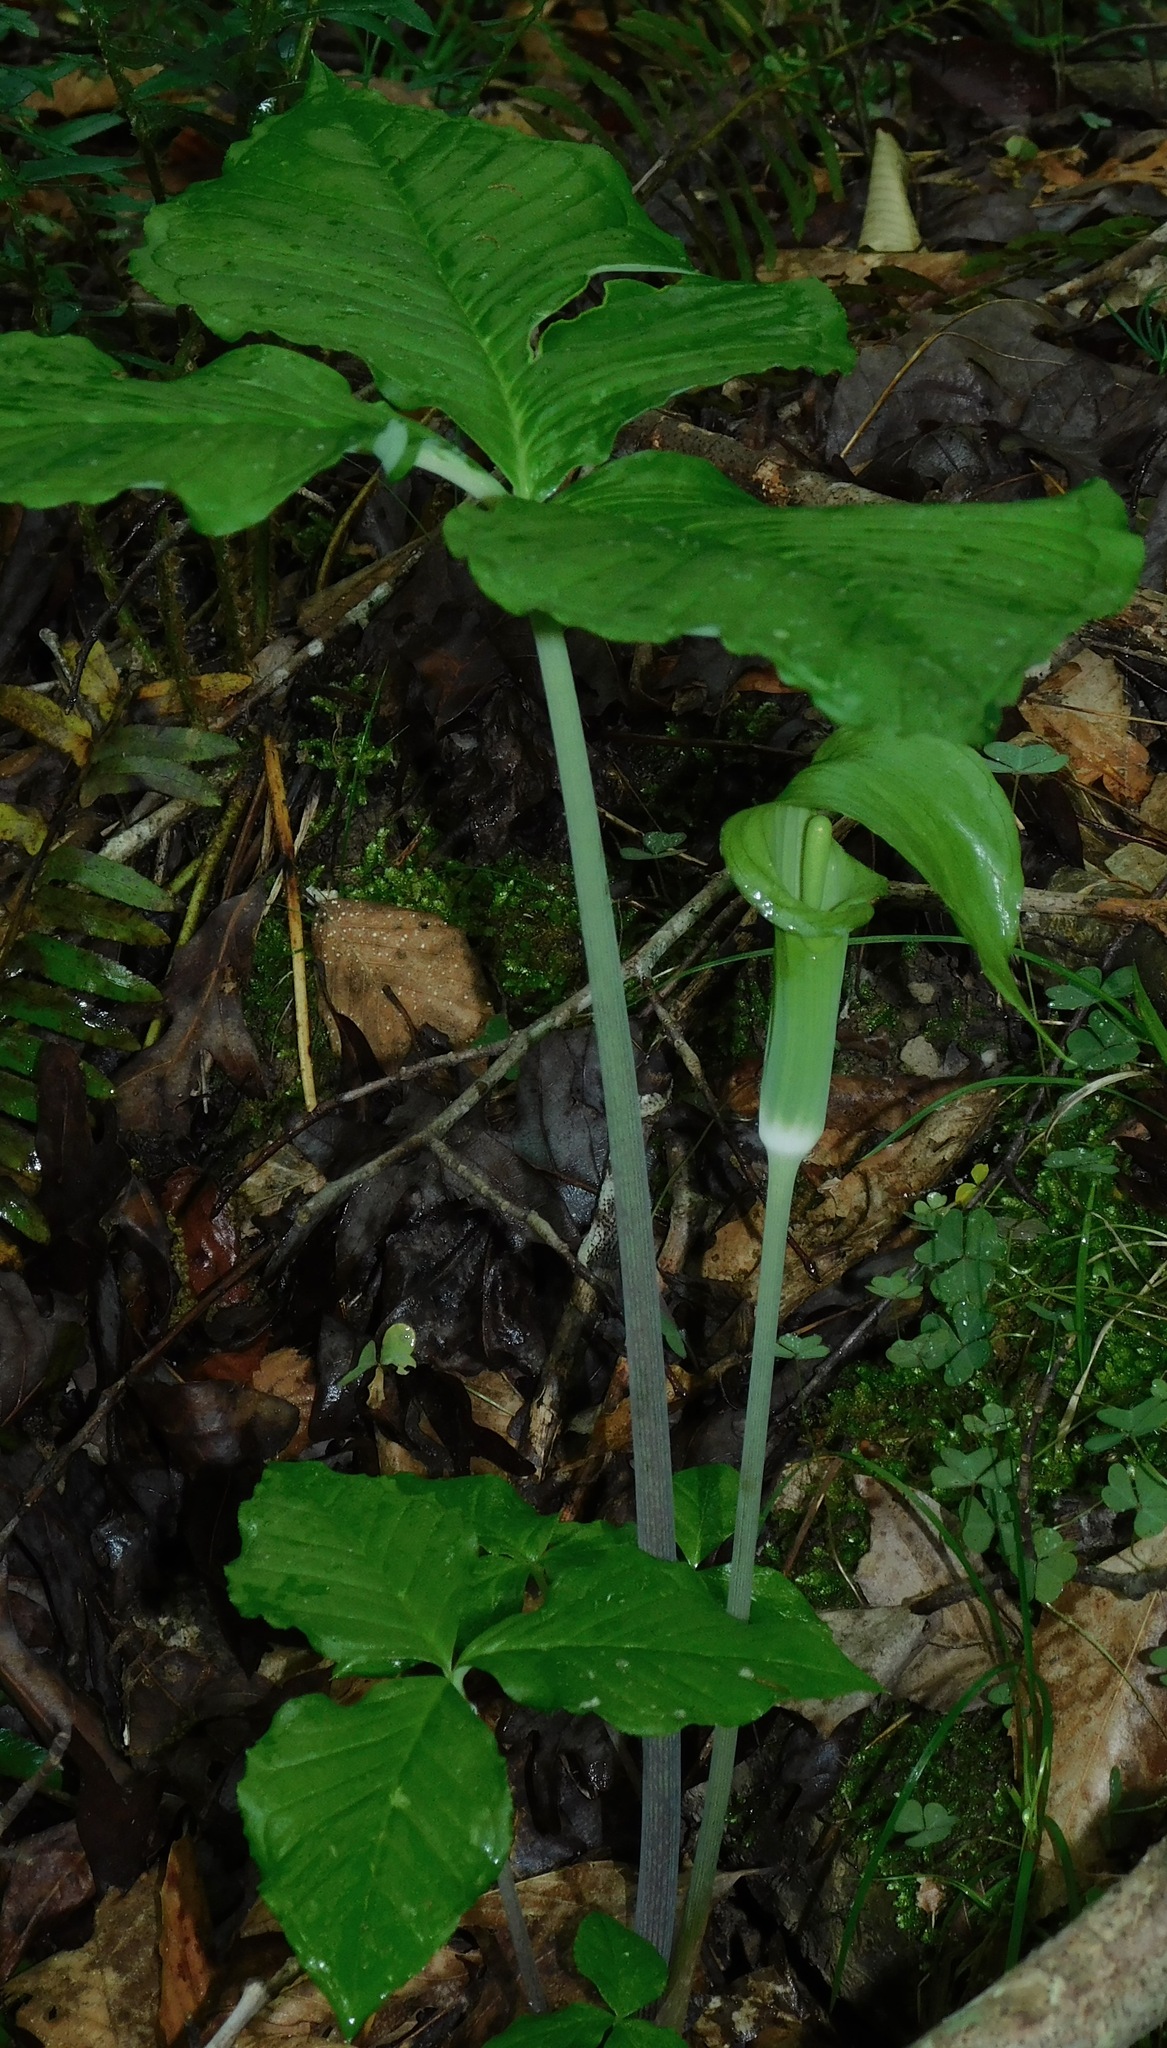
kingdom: Plantae
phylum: Tracheophyta
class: Liliopsida
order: Alismatales
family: Araceae
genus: Arisaema
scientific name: Arisaema triphyllum
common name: Jack-in-the-pulpit
